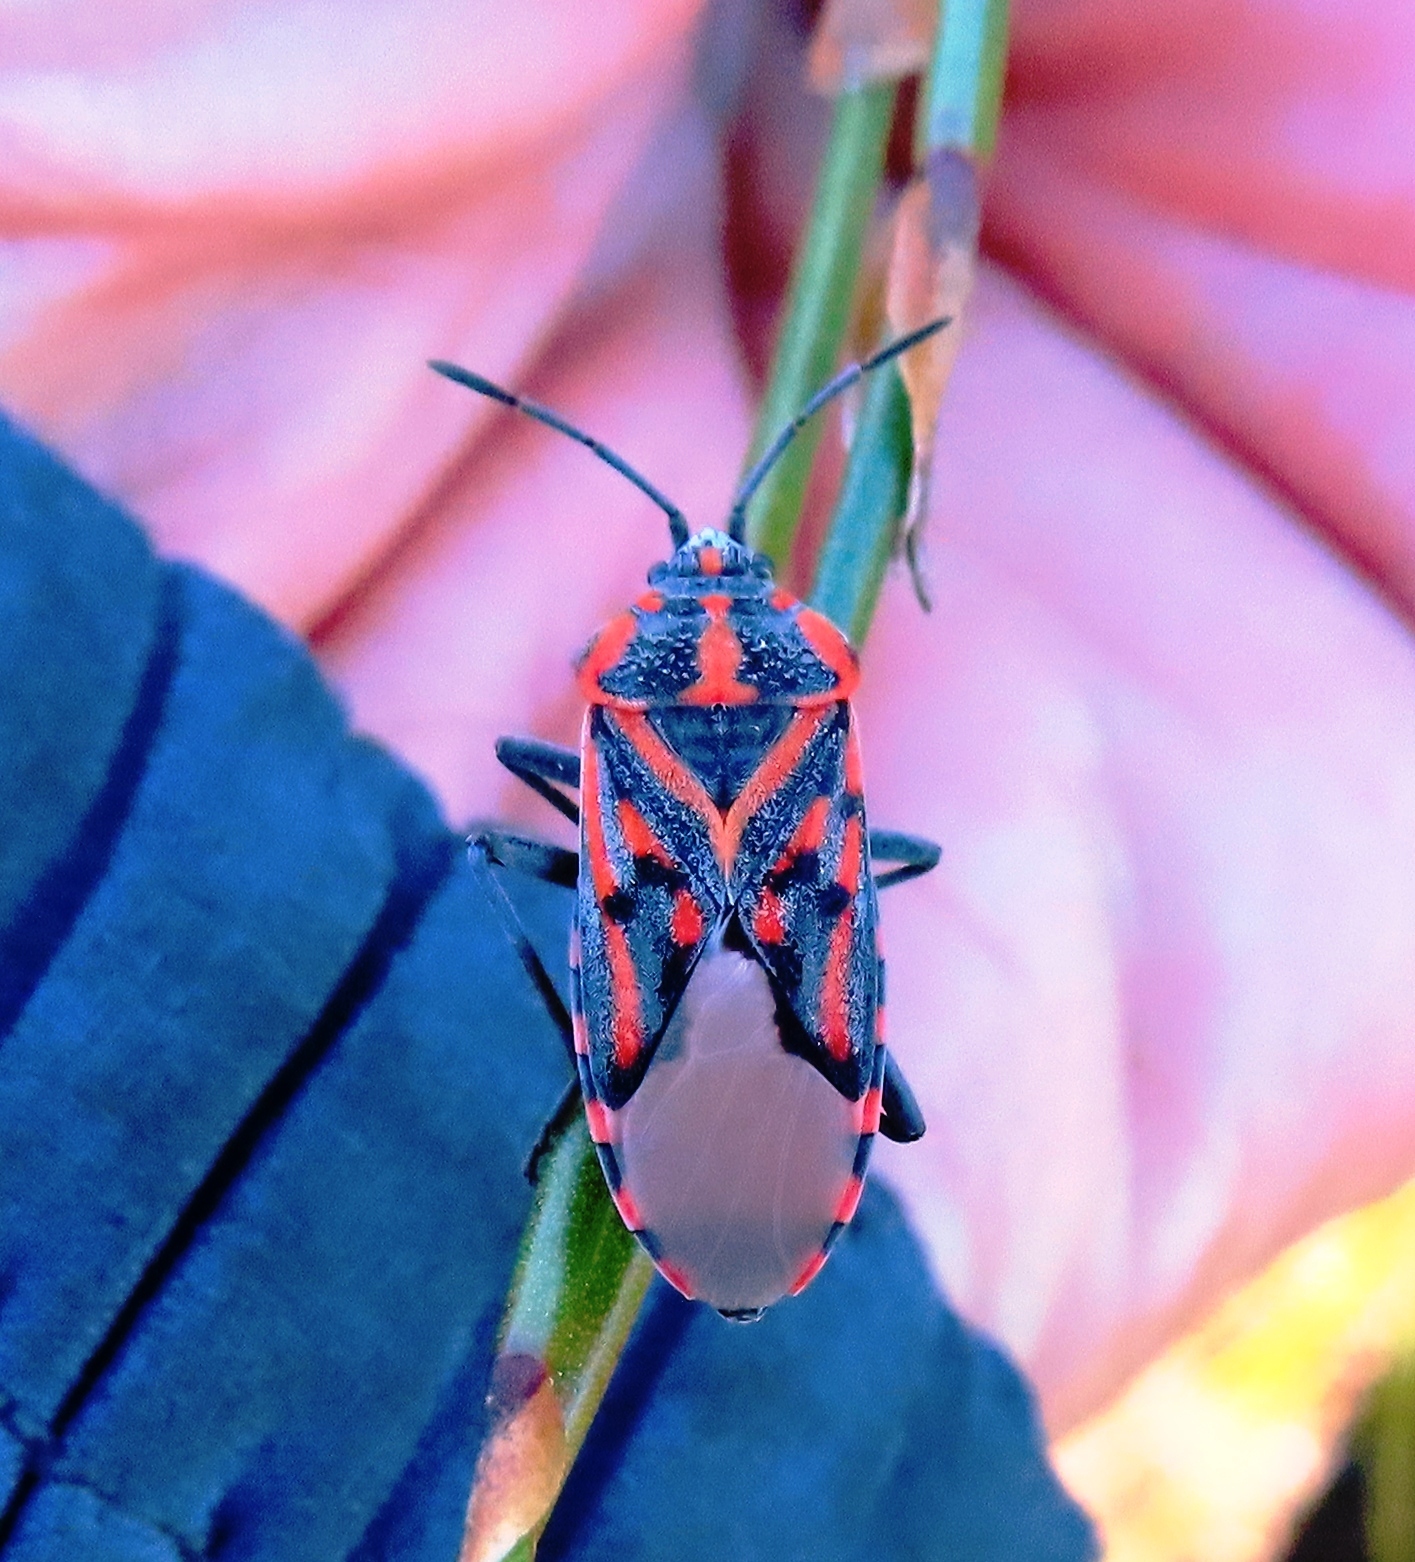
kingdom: Animalia
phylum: Arthropoda
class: Insecta
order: Hemiptera
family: Lygaeidae
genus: Spilostethus
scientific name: Spilostethus crudelis
